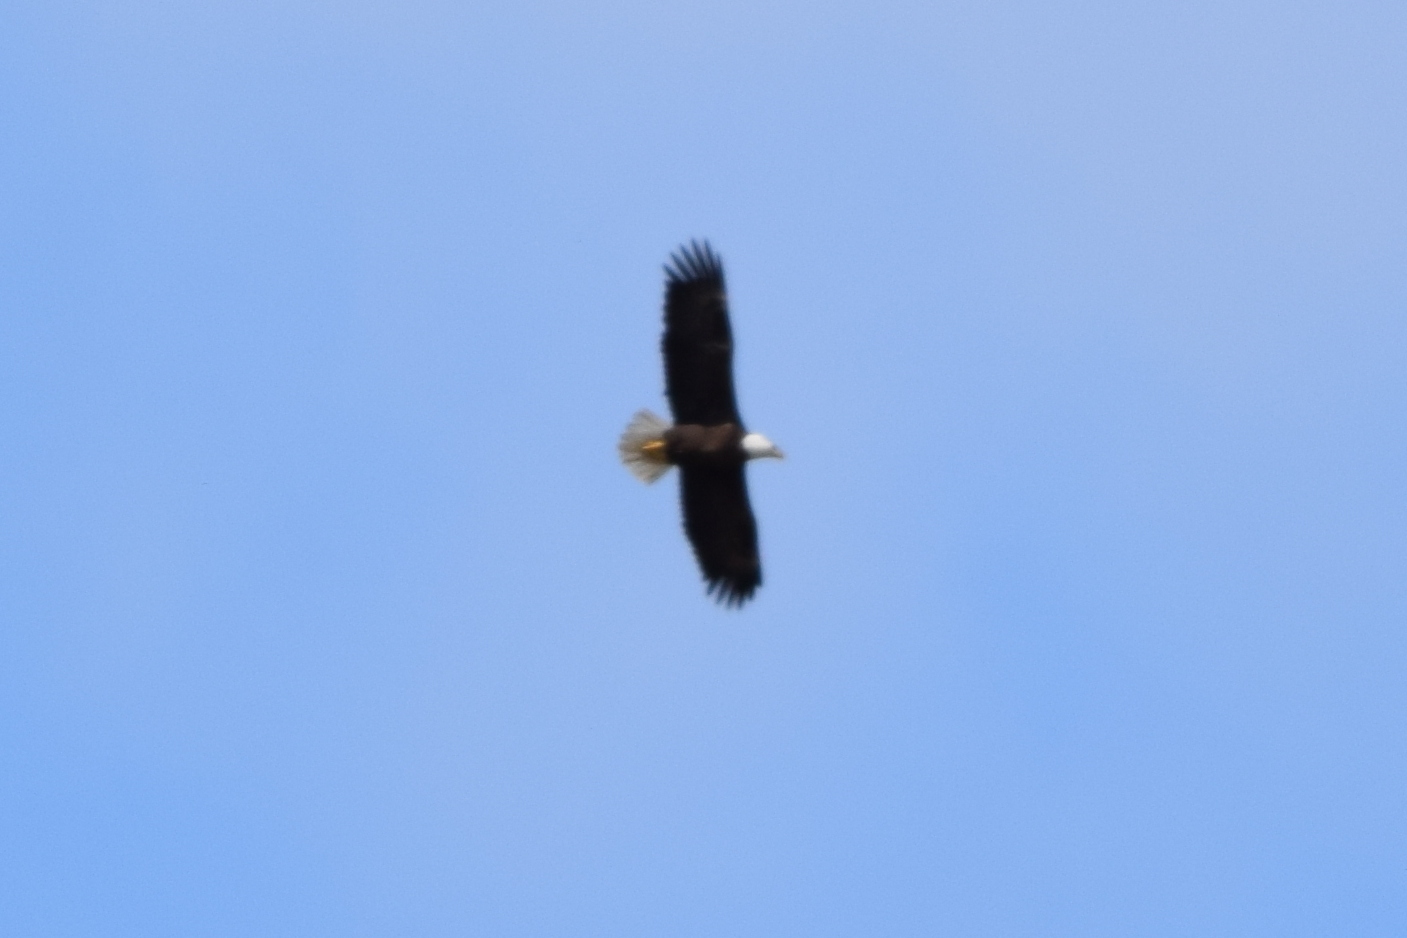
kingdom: Animalia
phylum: Chordata
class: Aves
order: Accipitriformes
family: Accipitridae
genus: Haliaeetus
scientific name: Haliaeetus leucocephalus
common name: Bald eagle
